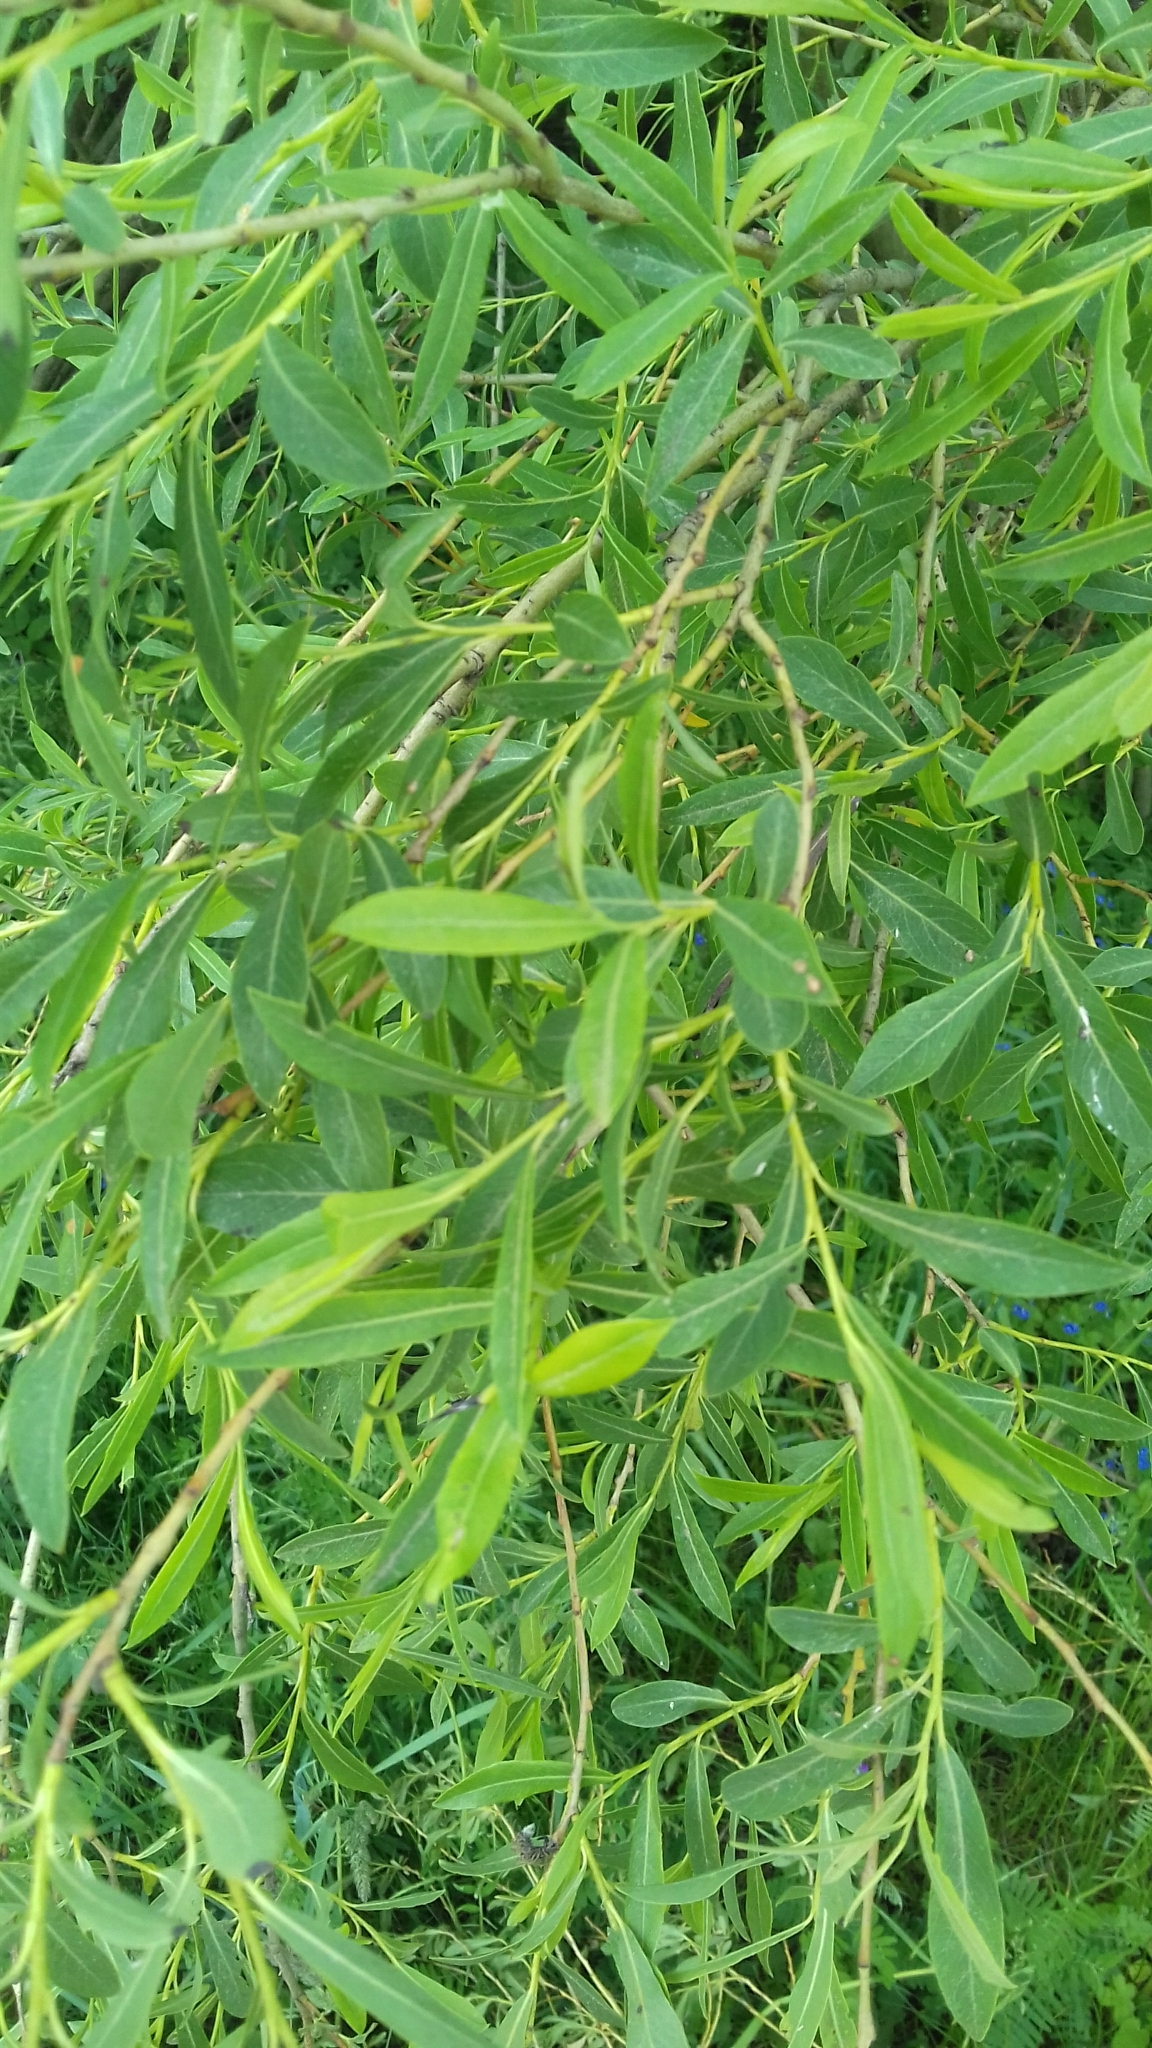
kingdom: Plantae
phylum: Tracheophyta
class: Magnoliopsida
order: Malpighiales
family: Salicaceae
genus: Salix
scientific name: Salix purpurea
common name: Purple willow
